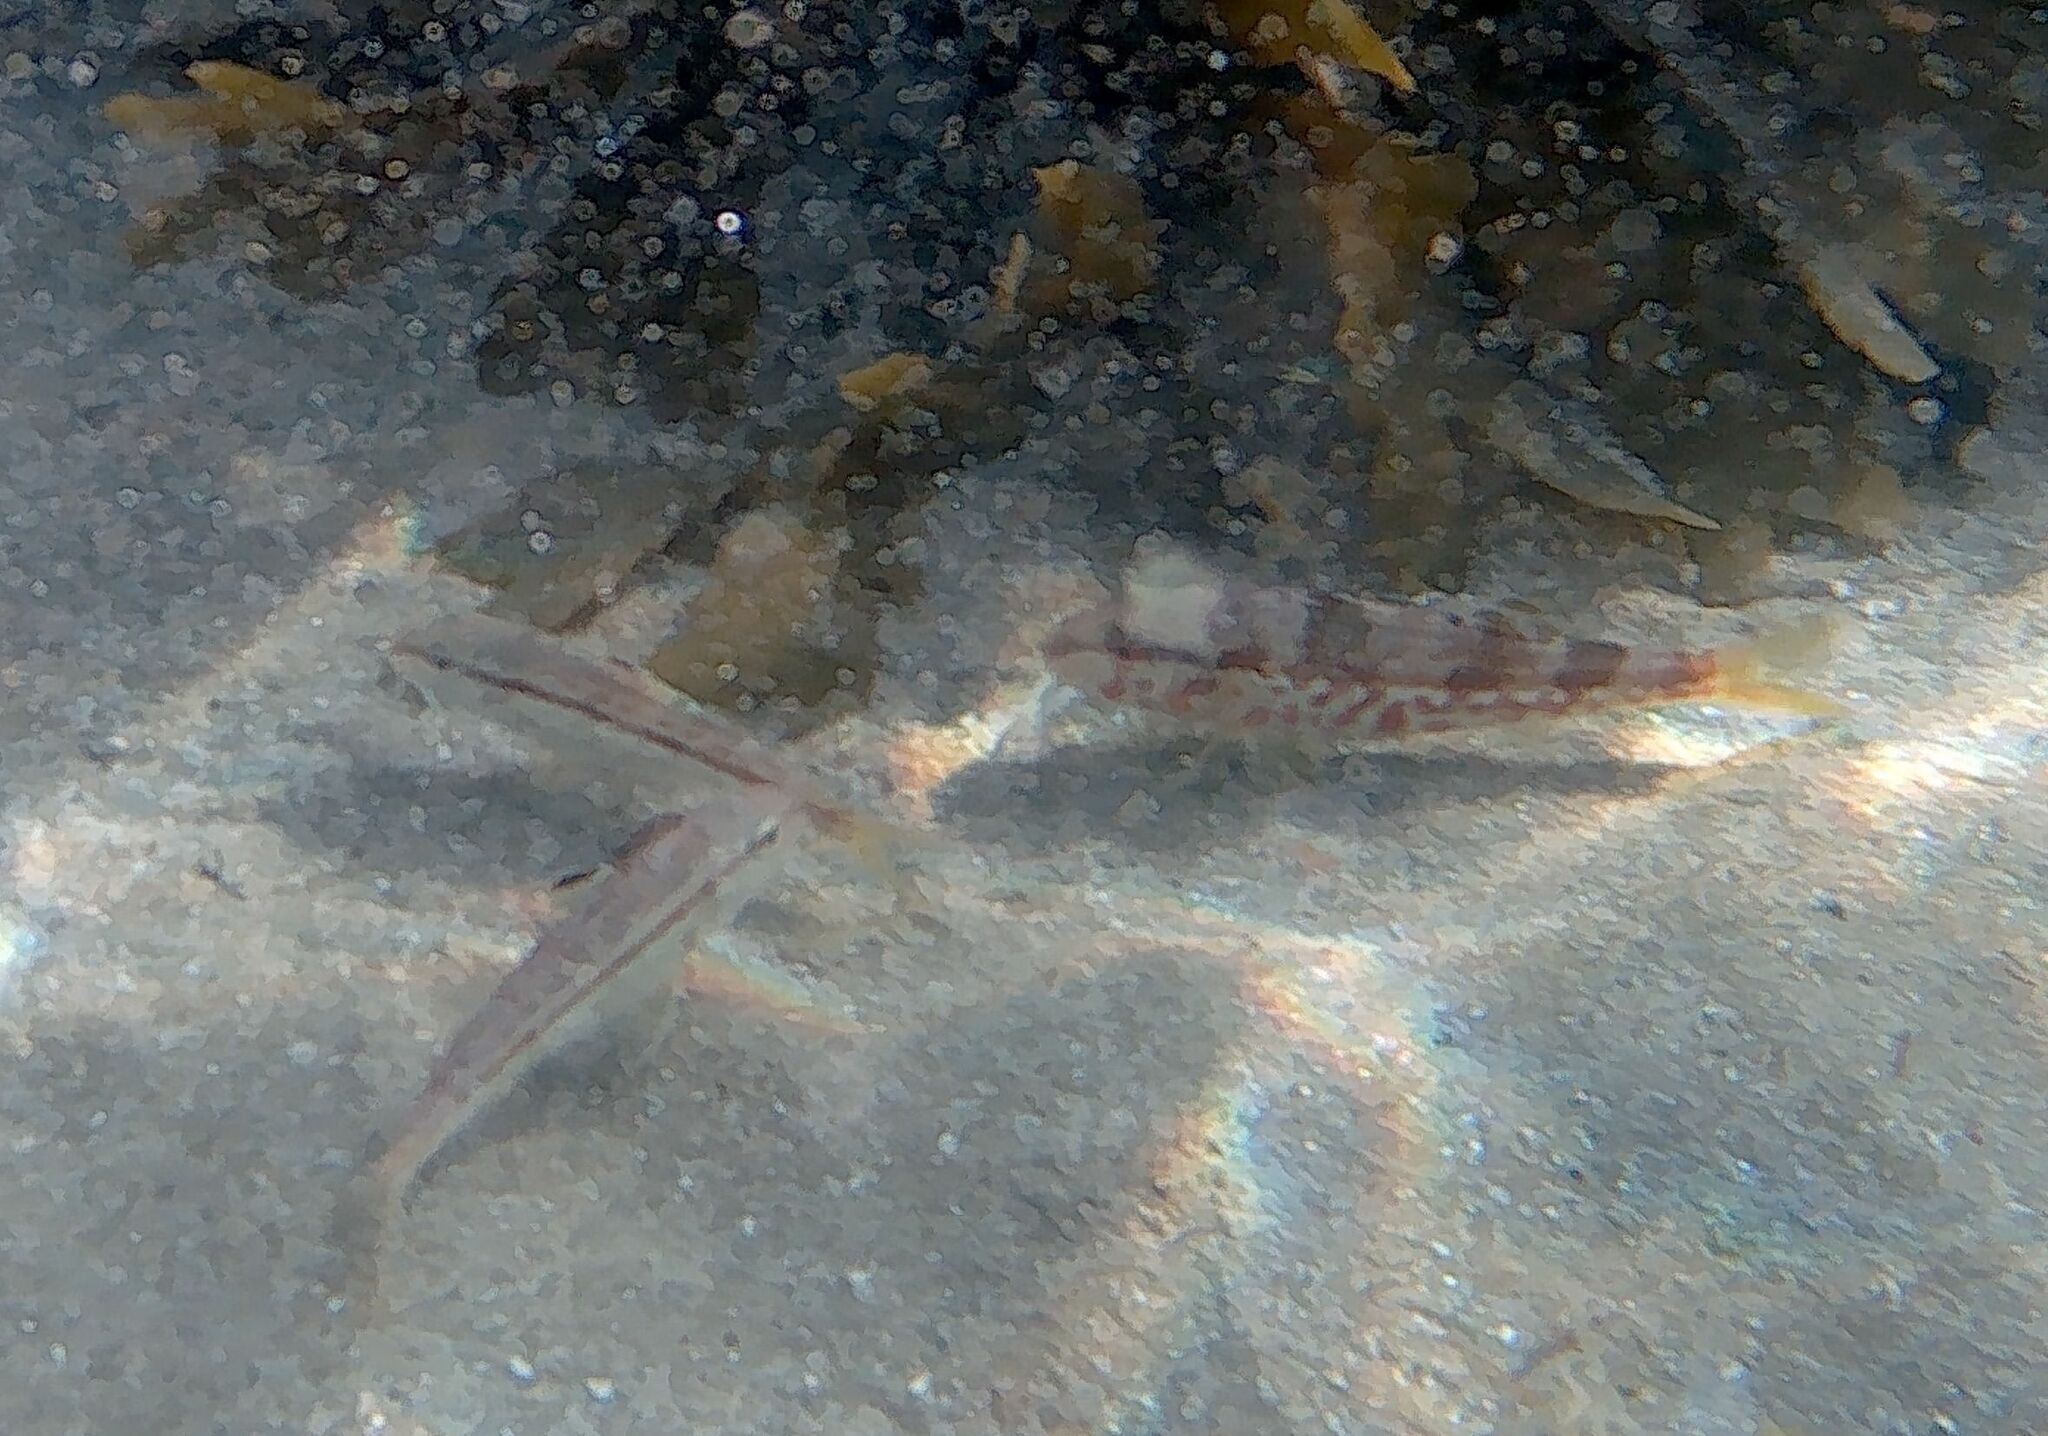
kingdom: Animalia
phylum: Chordata
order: Perciformes
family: Mullidae
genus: Mullus
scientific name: Mullus surmuletus
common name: Red mullet
